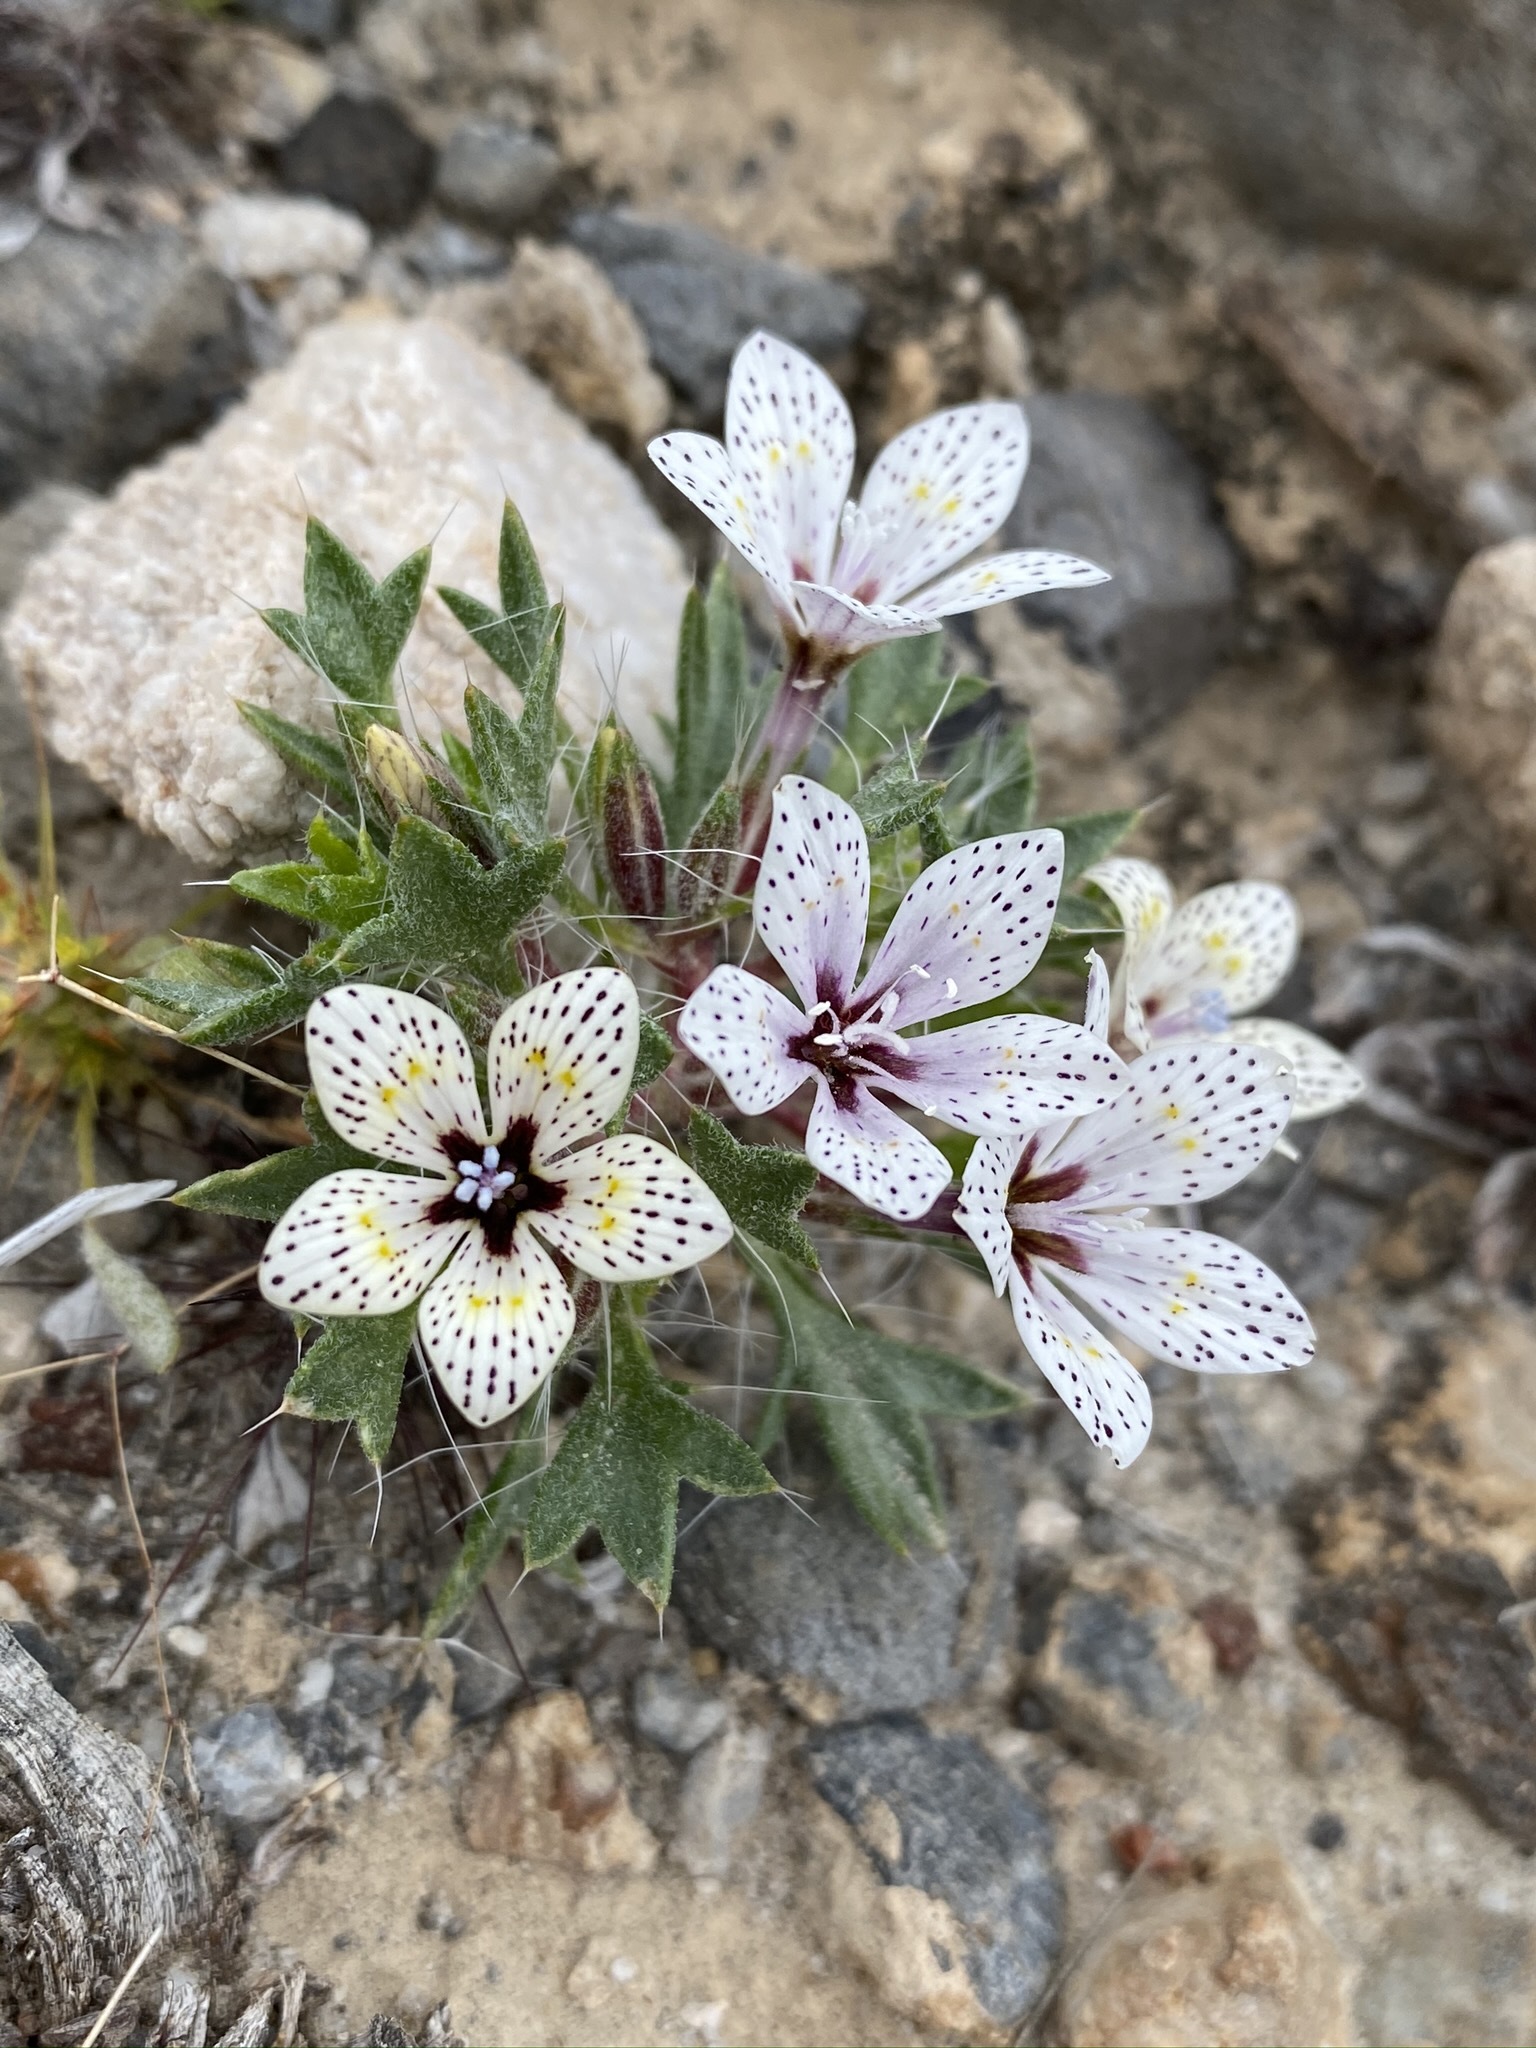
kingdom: Plantae
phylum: Tracheophyta
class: Magnoliopsida
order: Ericales
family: Polemoniaceae
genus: Langloisia
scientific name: Langloisia setosissima
